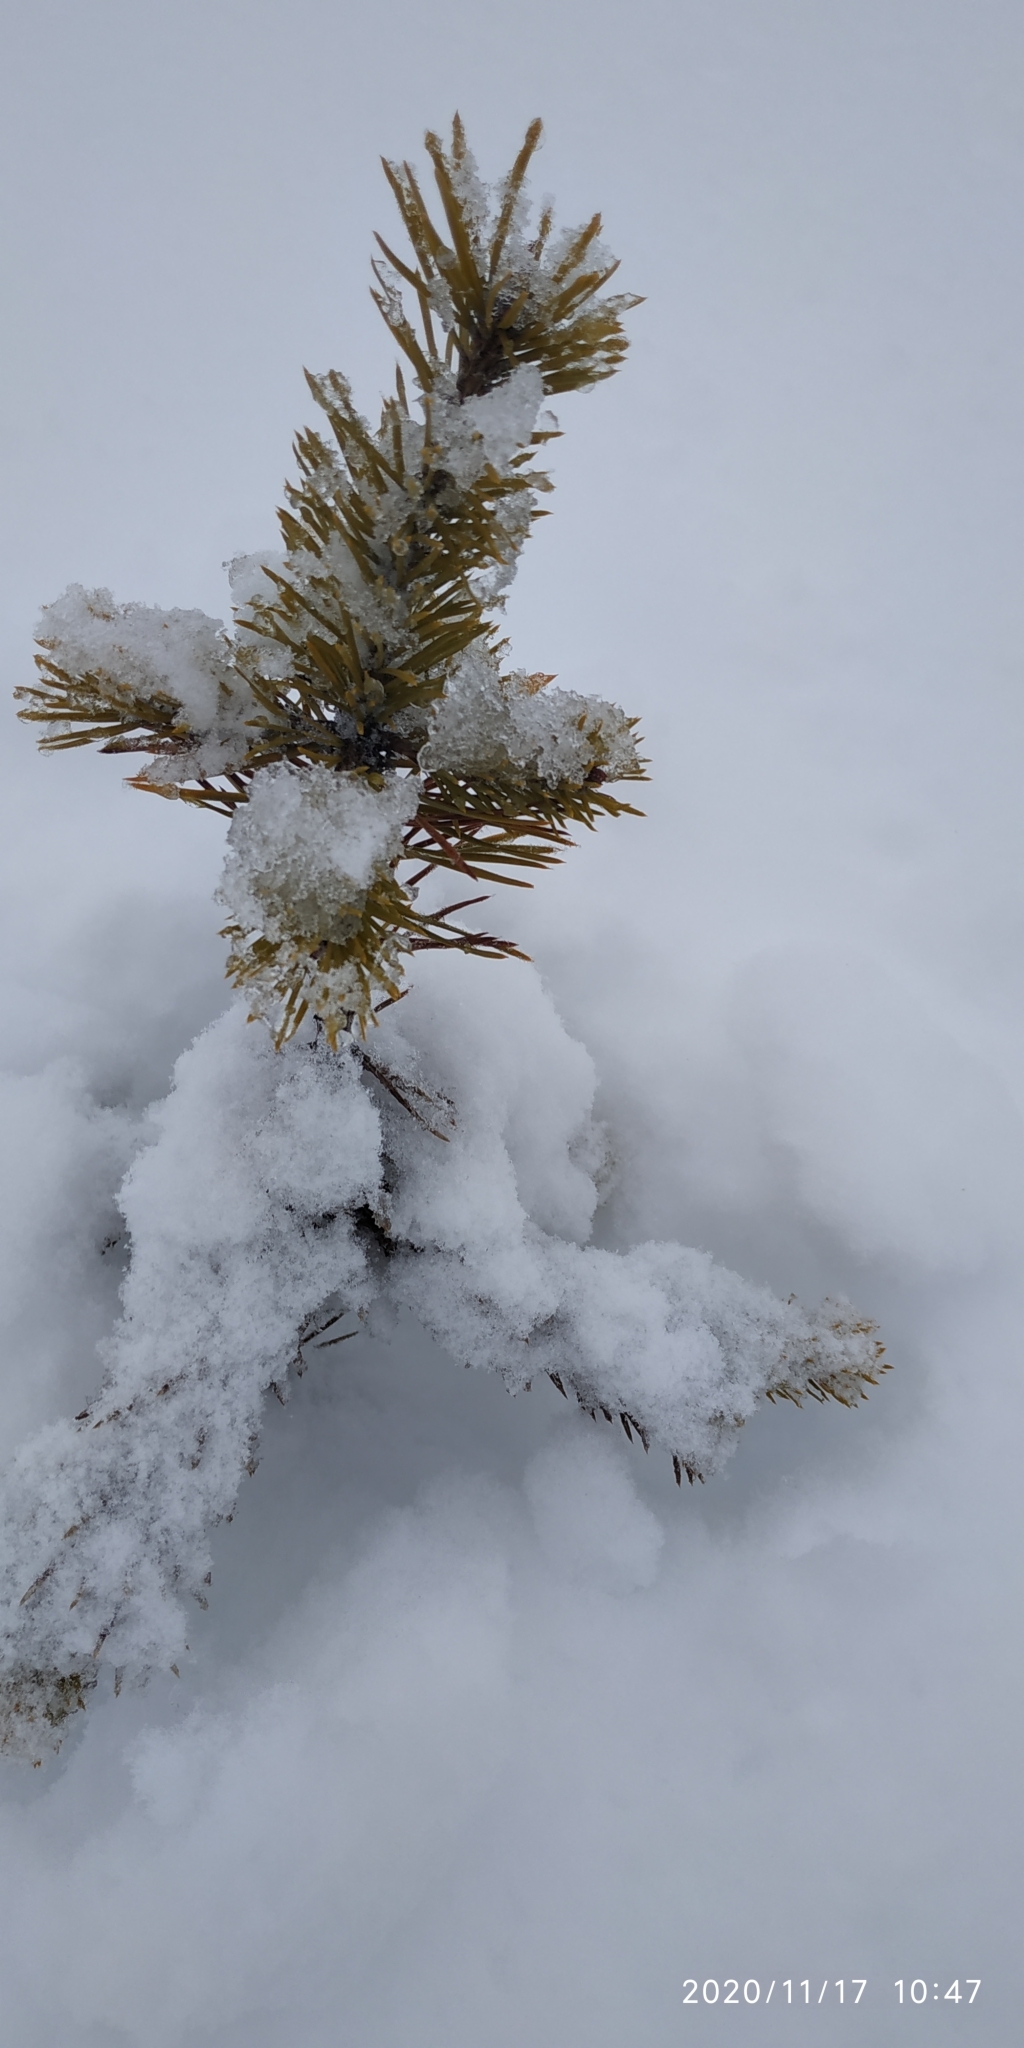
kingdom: Plantae
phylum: Tracheophyta
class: Pinopsida
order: Pinales
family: Pinaceae
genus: Pinus
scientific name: Pinus sylvestris
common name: Scots pine
